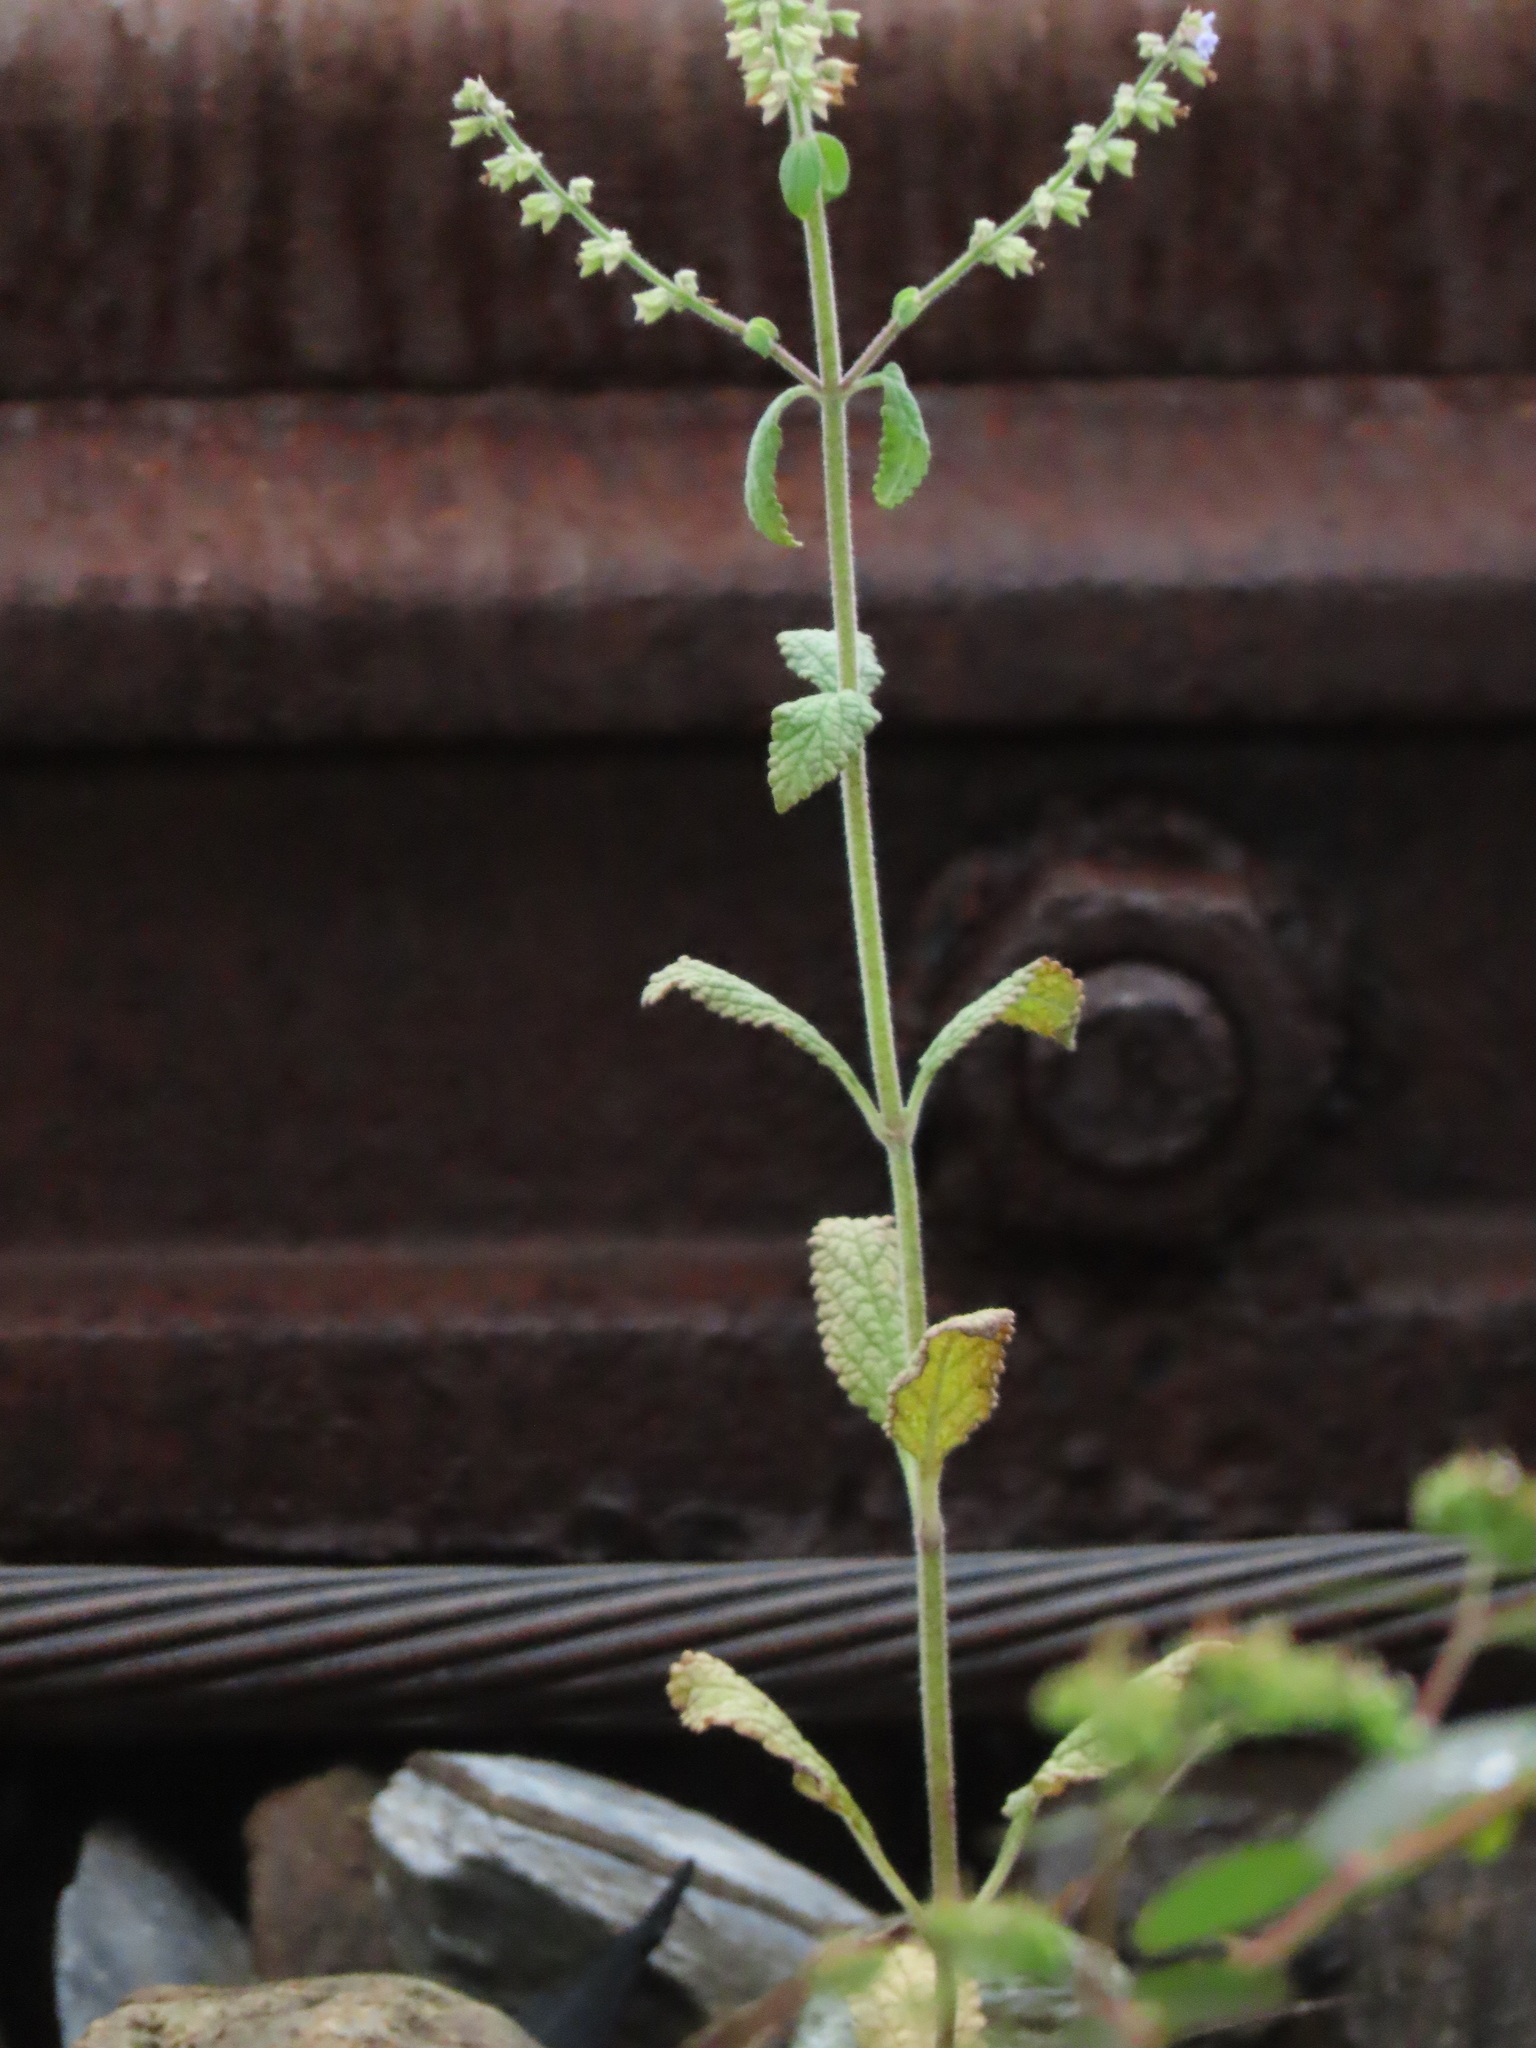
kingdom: Plantae
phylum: Tracheophyta
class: Magnoliopsida
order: Lamiales
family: Lamiaceae
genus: Salvia
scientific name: Salvia plebeia
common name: Australian sage
